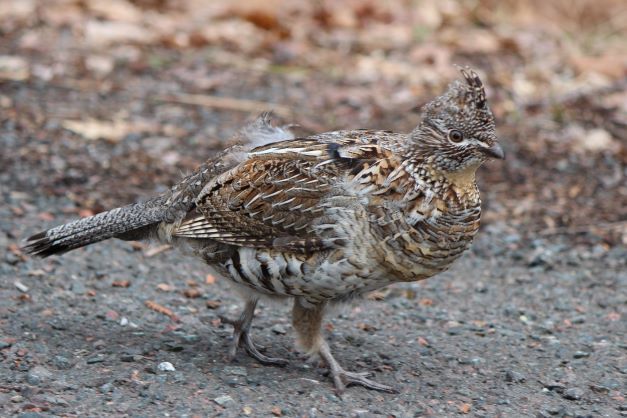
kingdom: Animalia
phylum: Chordata
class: Aves
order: Galliformes
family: Phasianidae
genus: Bonasa
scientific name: Bonasa umbellus
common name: Ruffed grouse
